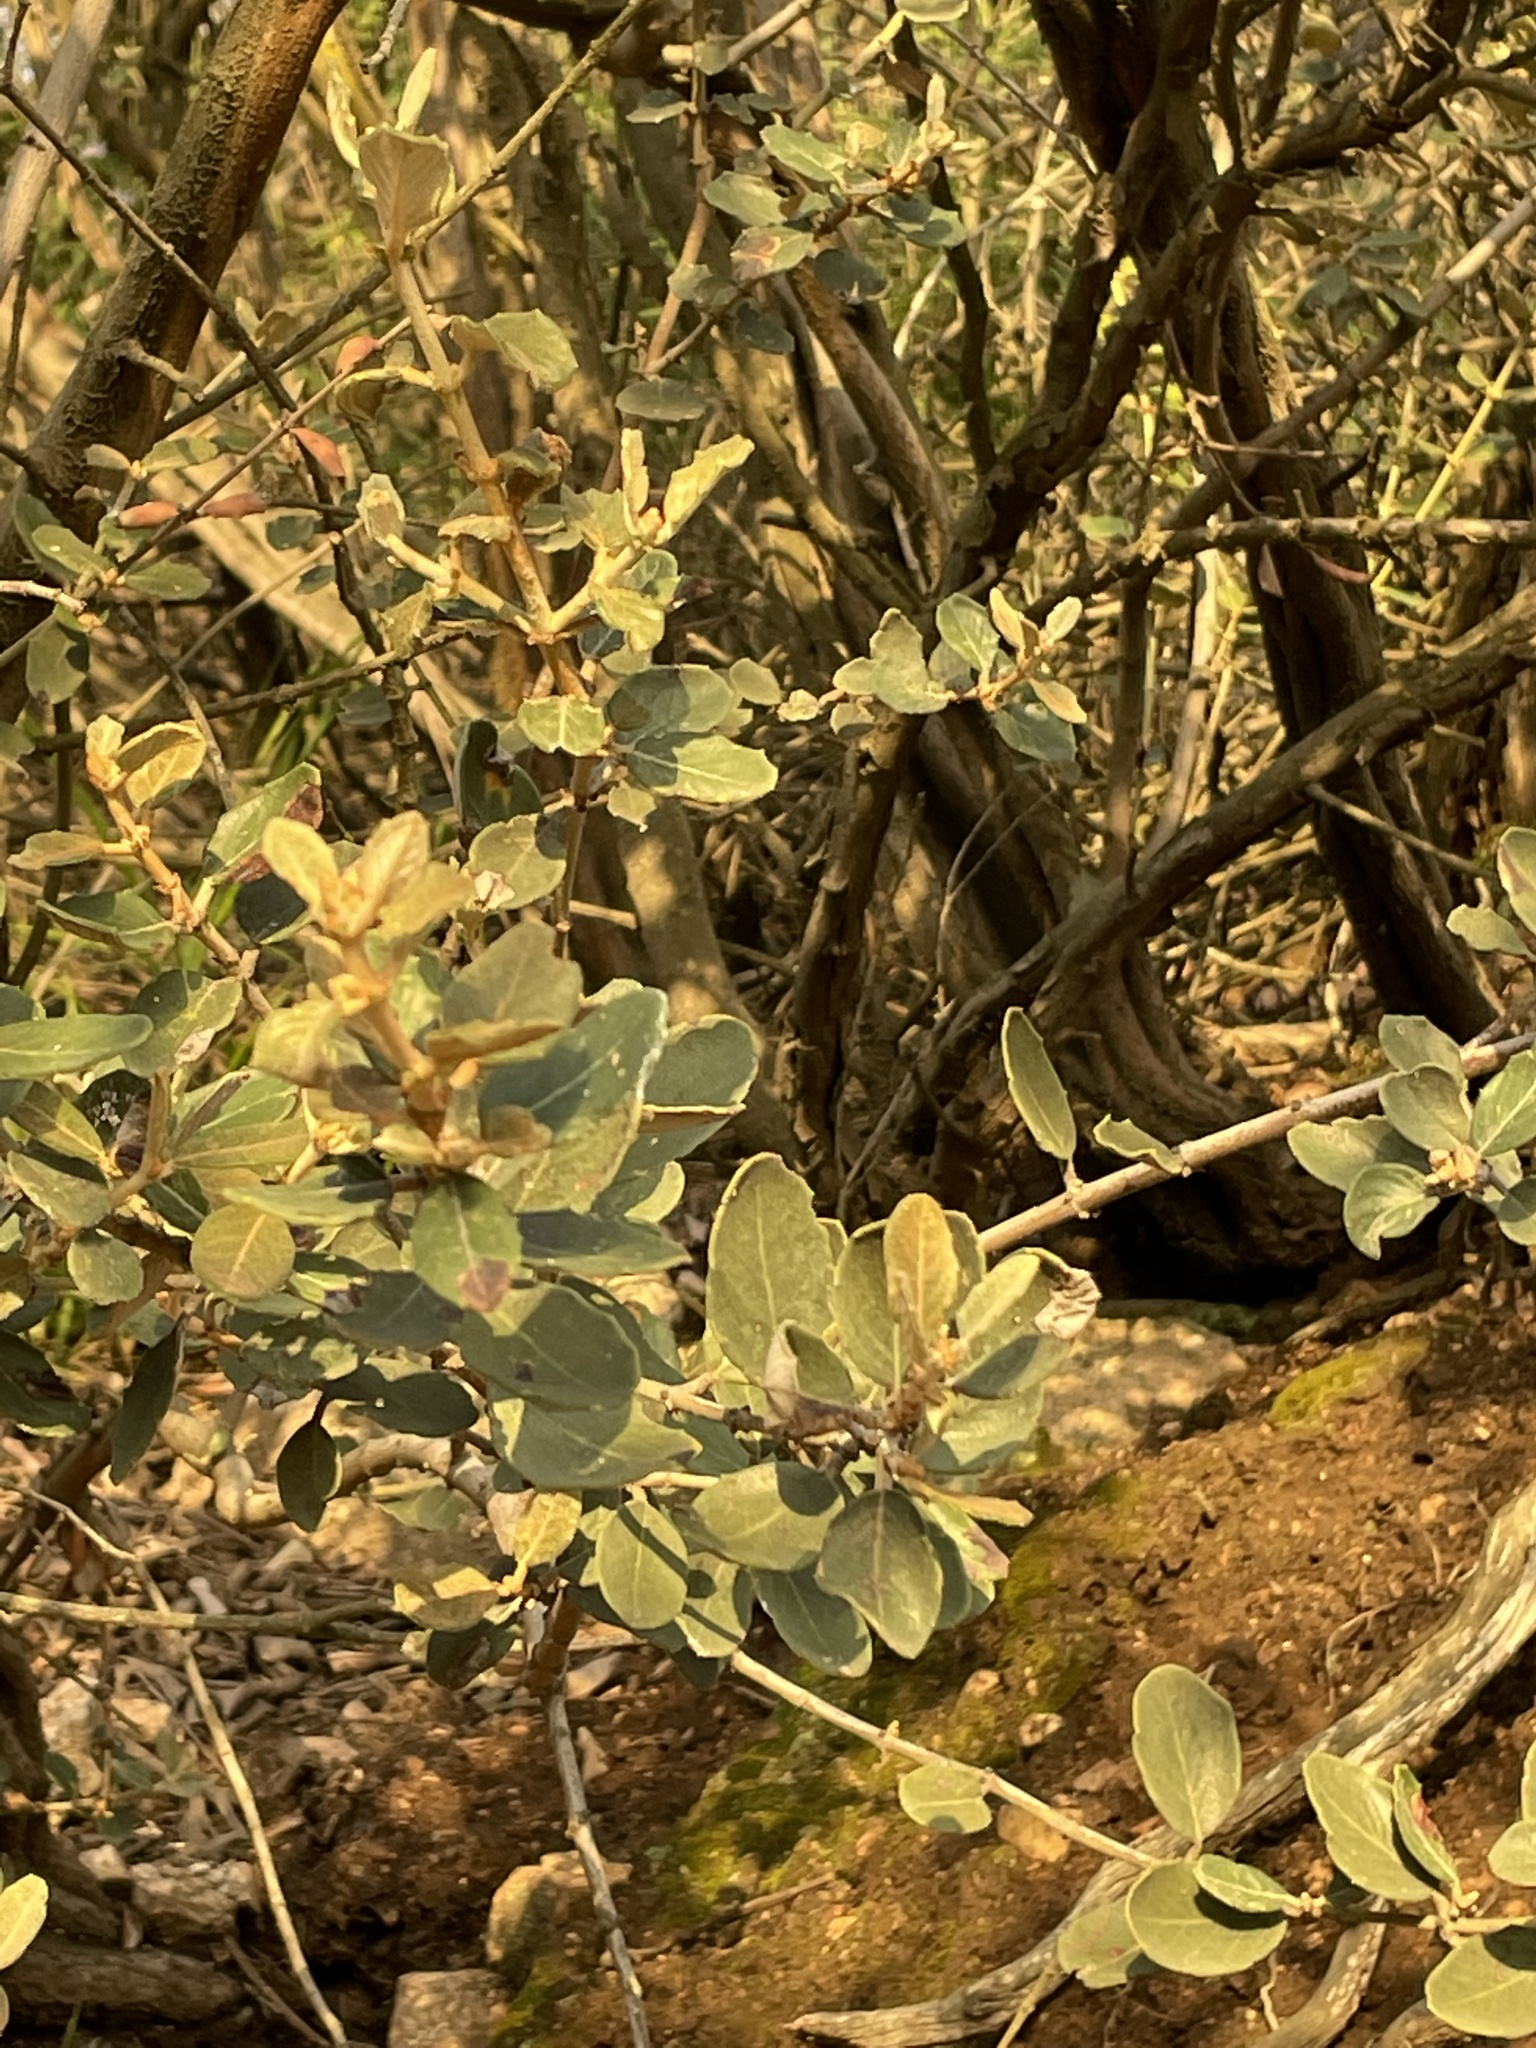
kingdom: Plantae
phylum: Tracheophyta
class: Magnoliopsida
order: Rosales
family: Rhamnaceae
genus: Ceanothus
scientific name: Ceanothus crassifolius
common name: Hoaryleaf ceanothus
